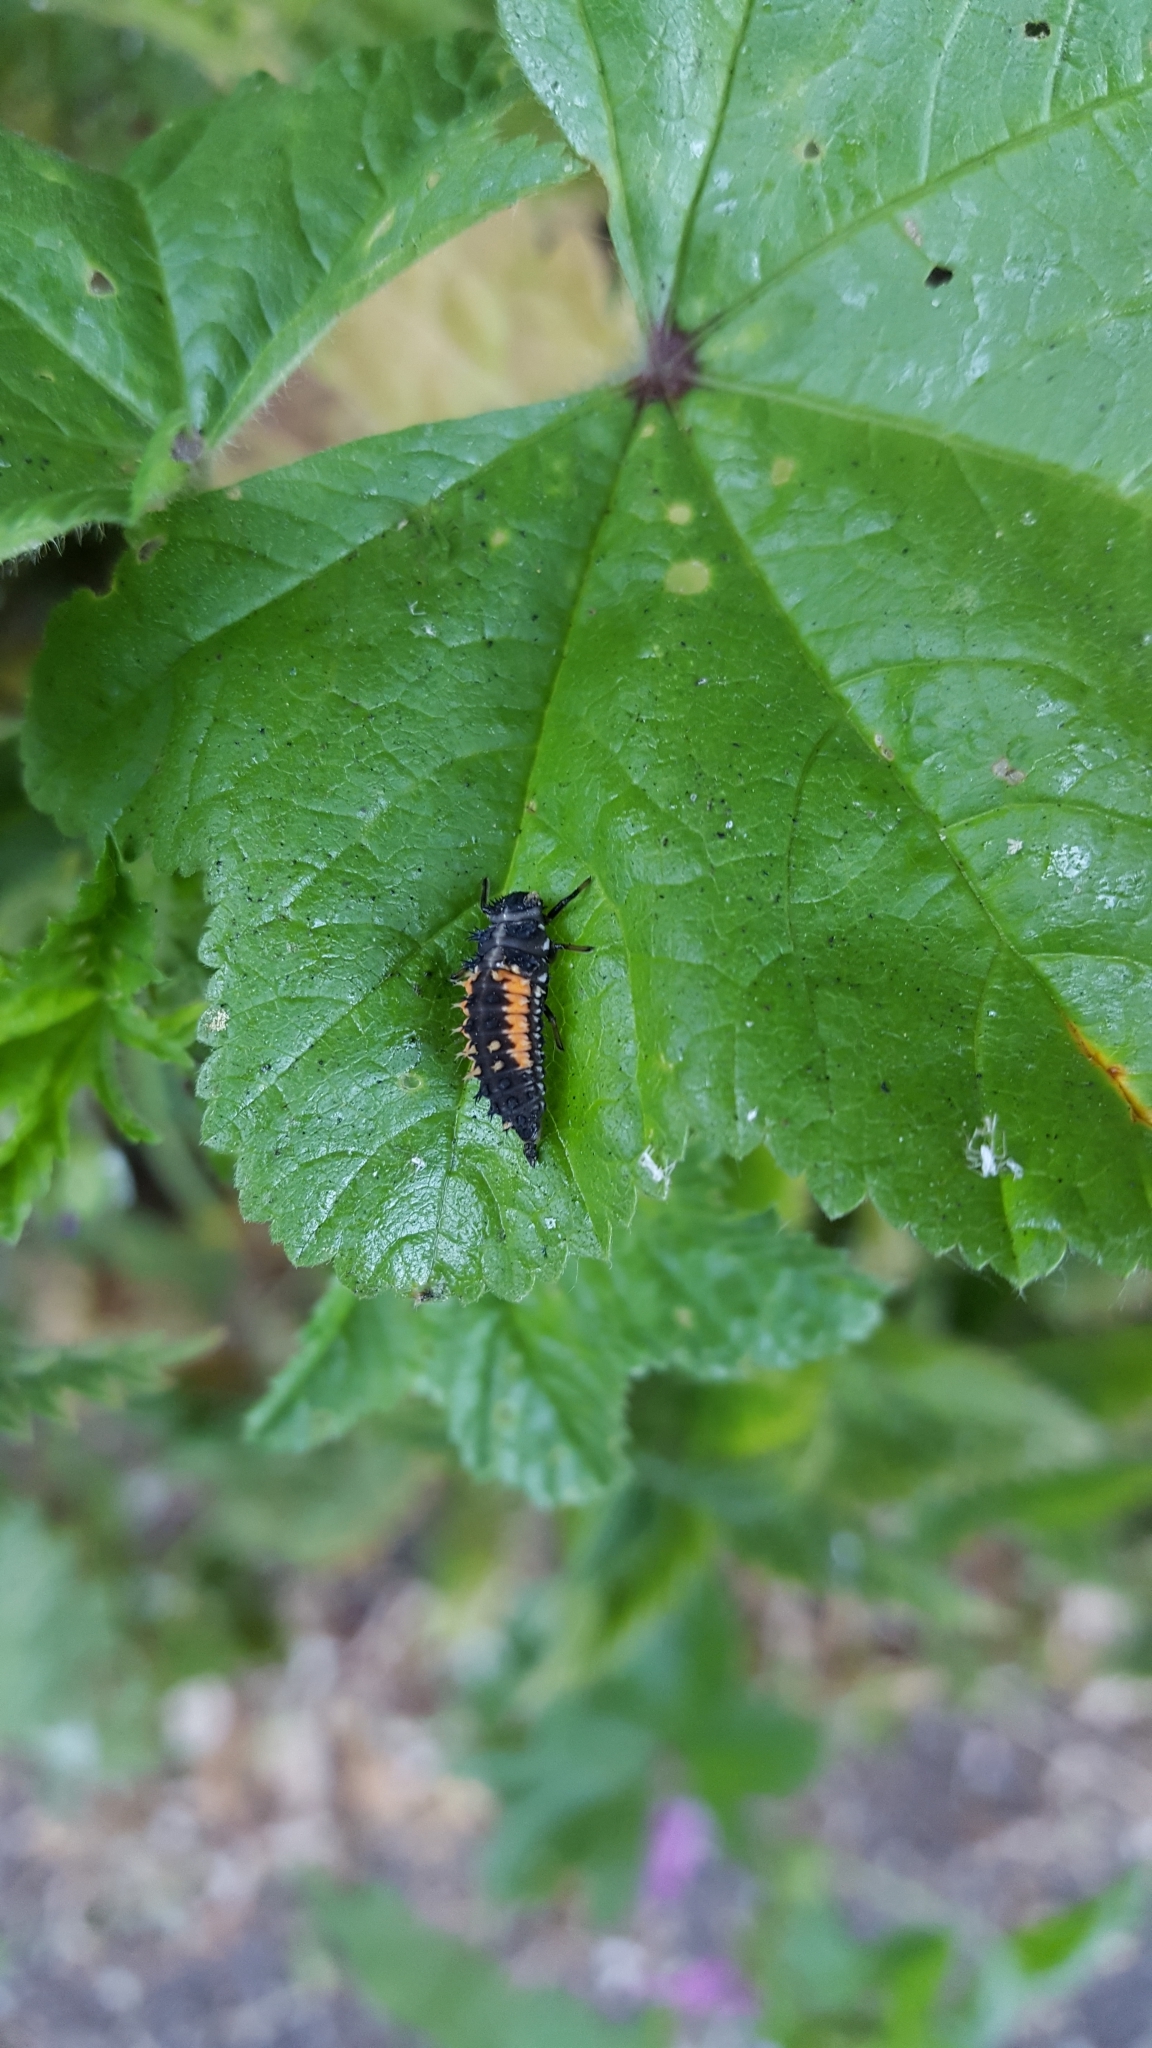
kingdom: Animalia
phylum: Arthropoda
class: Insecta
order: Coleoptera
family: Coccinellidae
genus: Harmonia
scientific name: Harmonia axyridis
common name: Harlequin ladybird
